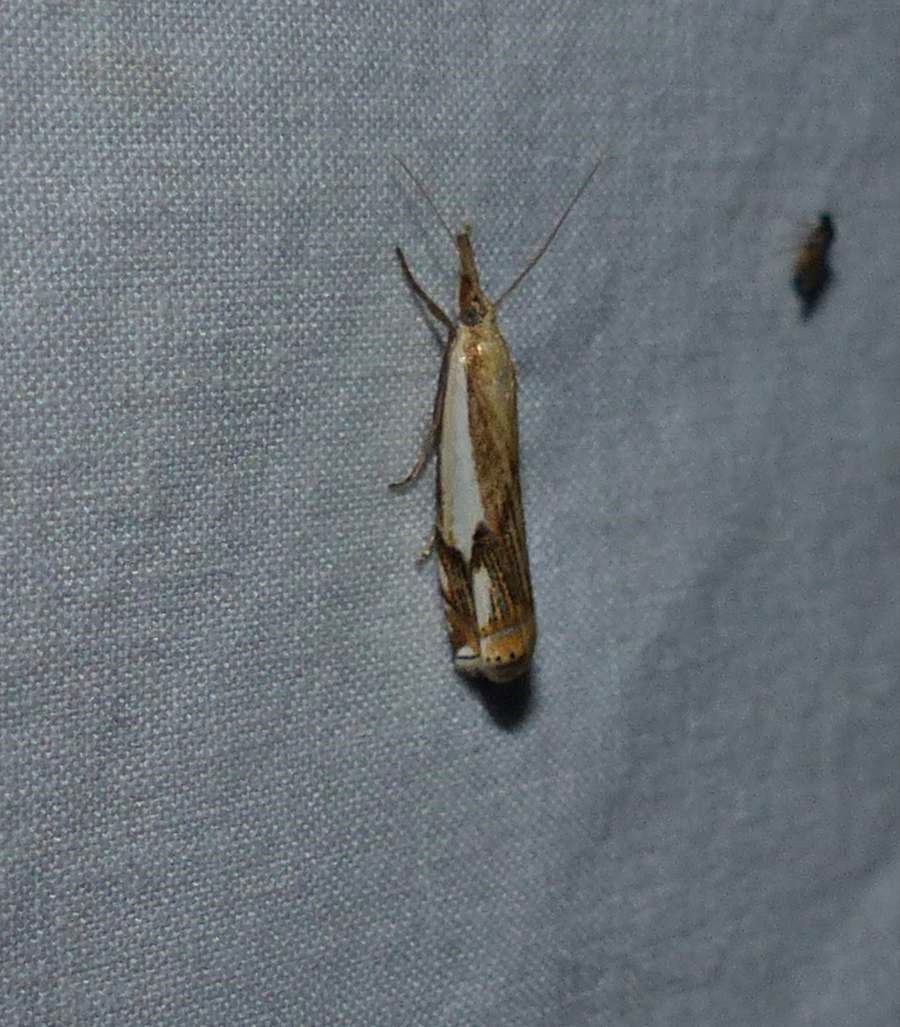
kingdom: Animalia
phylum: Arthropoda
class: Insecta
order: Lepidoptera
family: Crambidae
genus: Crambus
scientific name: Crambus agitatellus
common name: Double-banded grass-veneer
